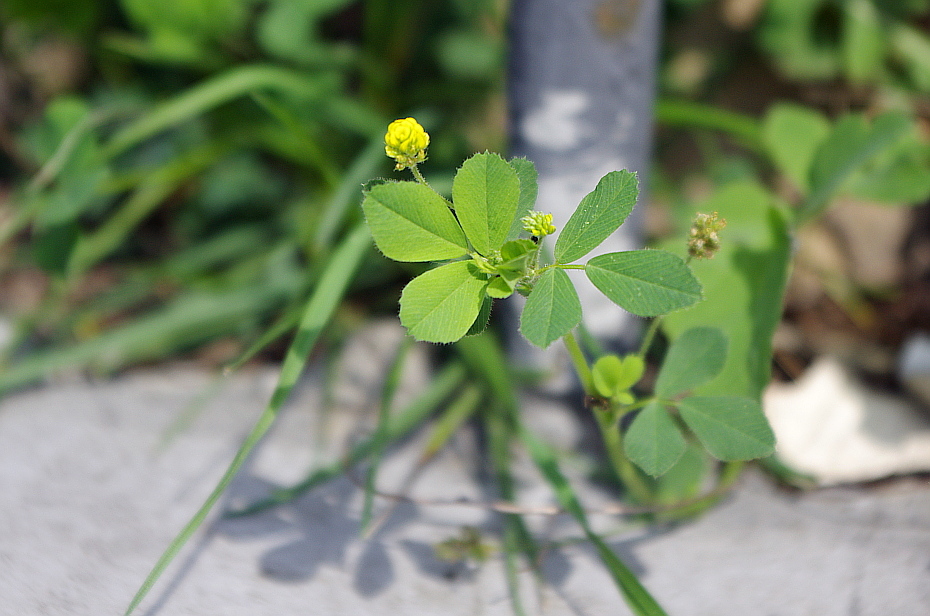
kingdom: Plantae
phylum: Tracheophyta
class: Magnoliopsida
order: Fabales
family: Fabaceae
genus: Medicago
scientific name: Medicago lupulina
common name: Black medick
